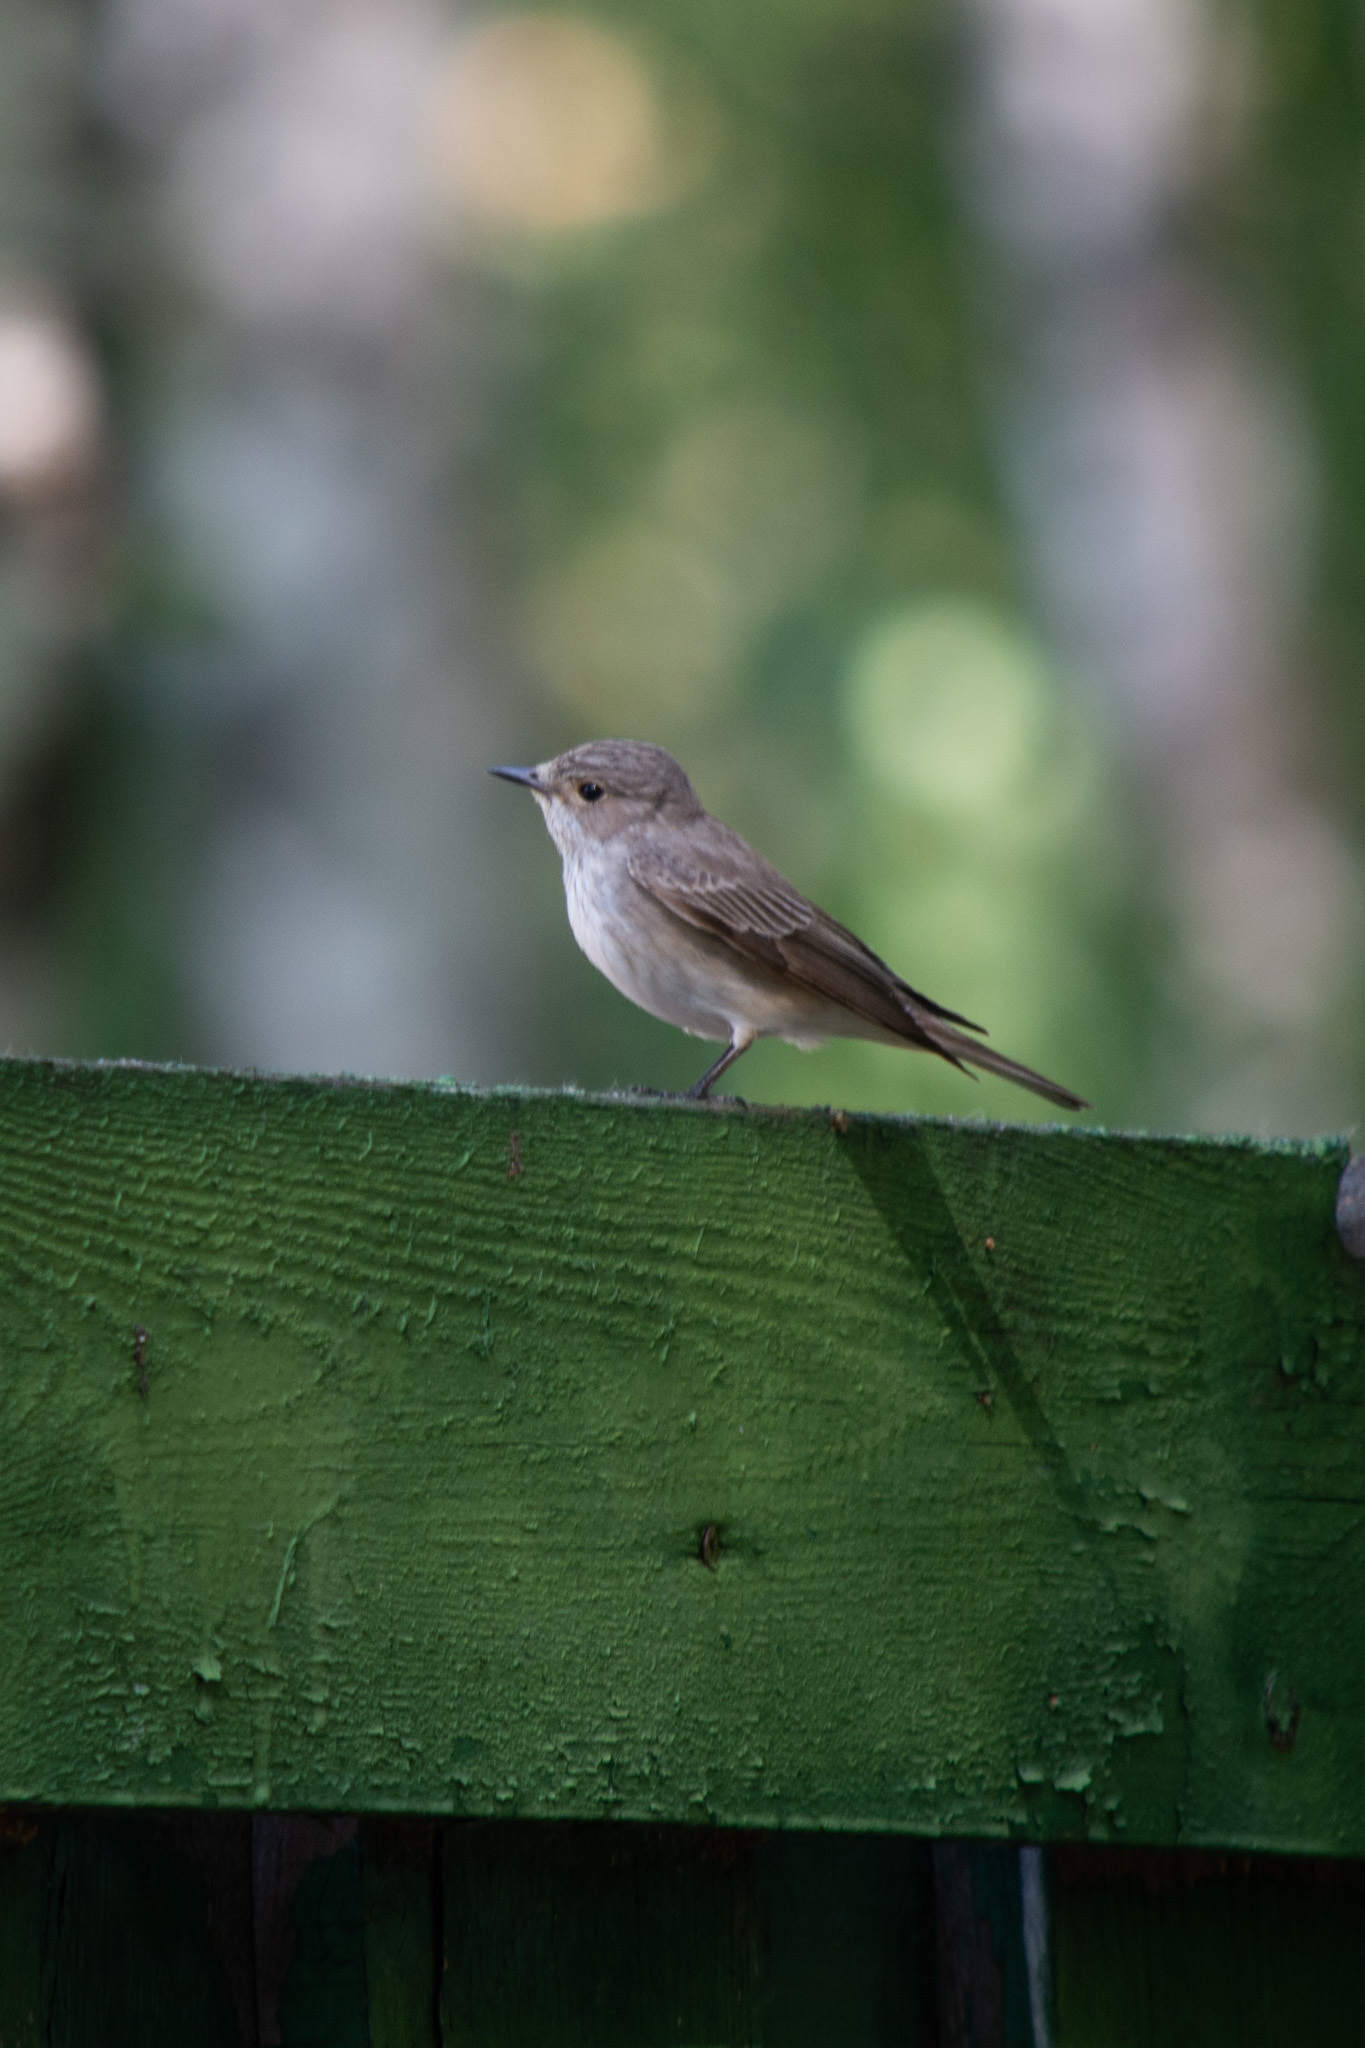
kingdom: Animalia
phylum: Chordata
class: Aves
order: Passeriformes
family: Muscicapidae
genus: Muscicapa
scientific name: Muscicapa striata
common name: Spotted flycatcher
